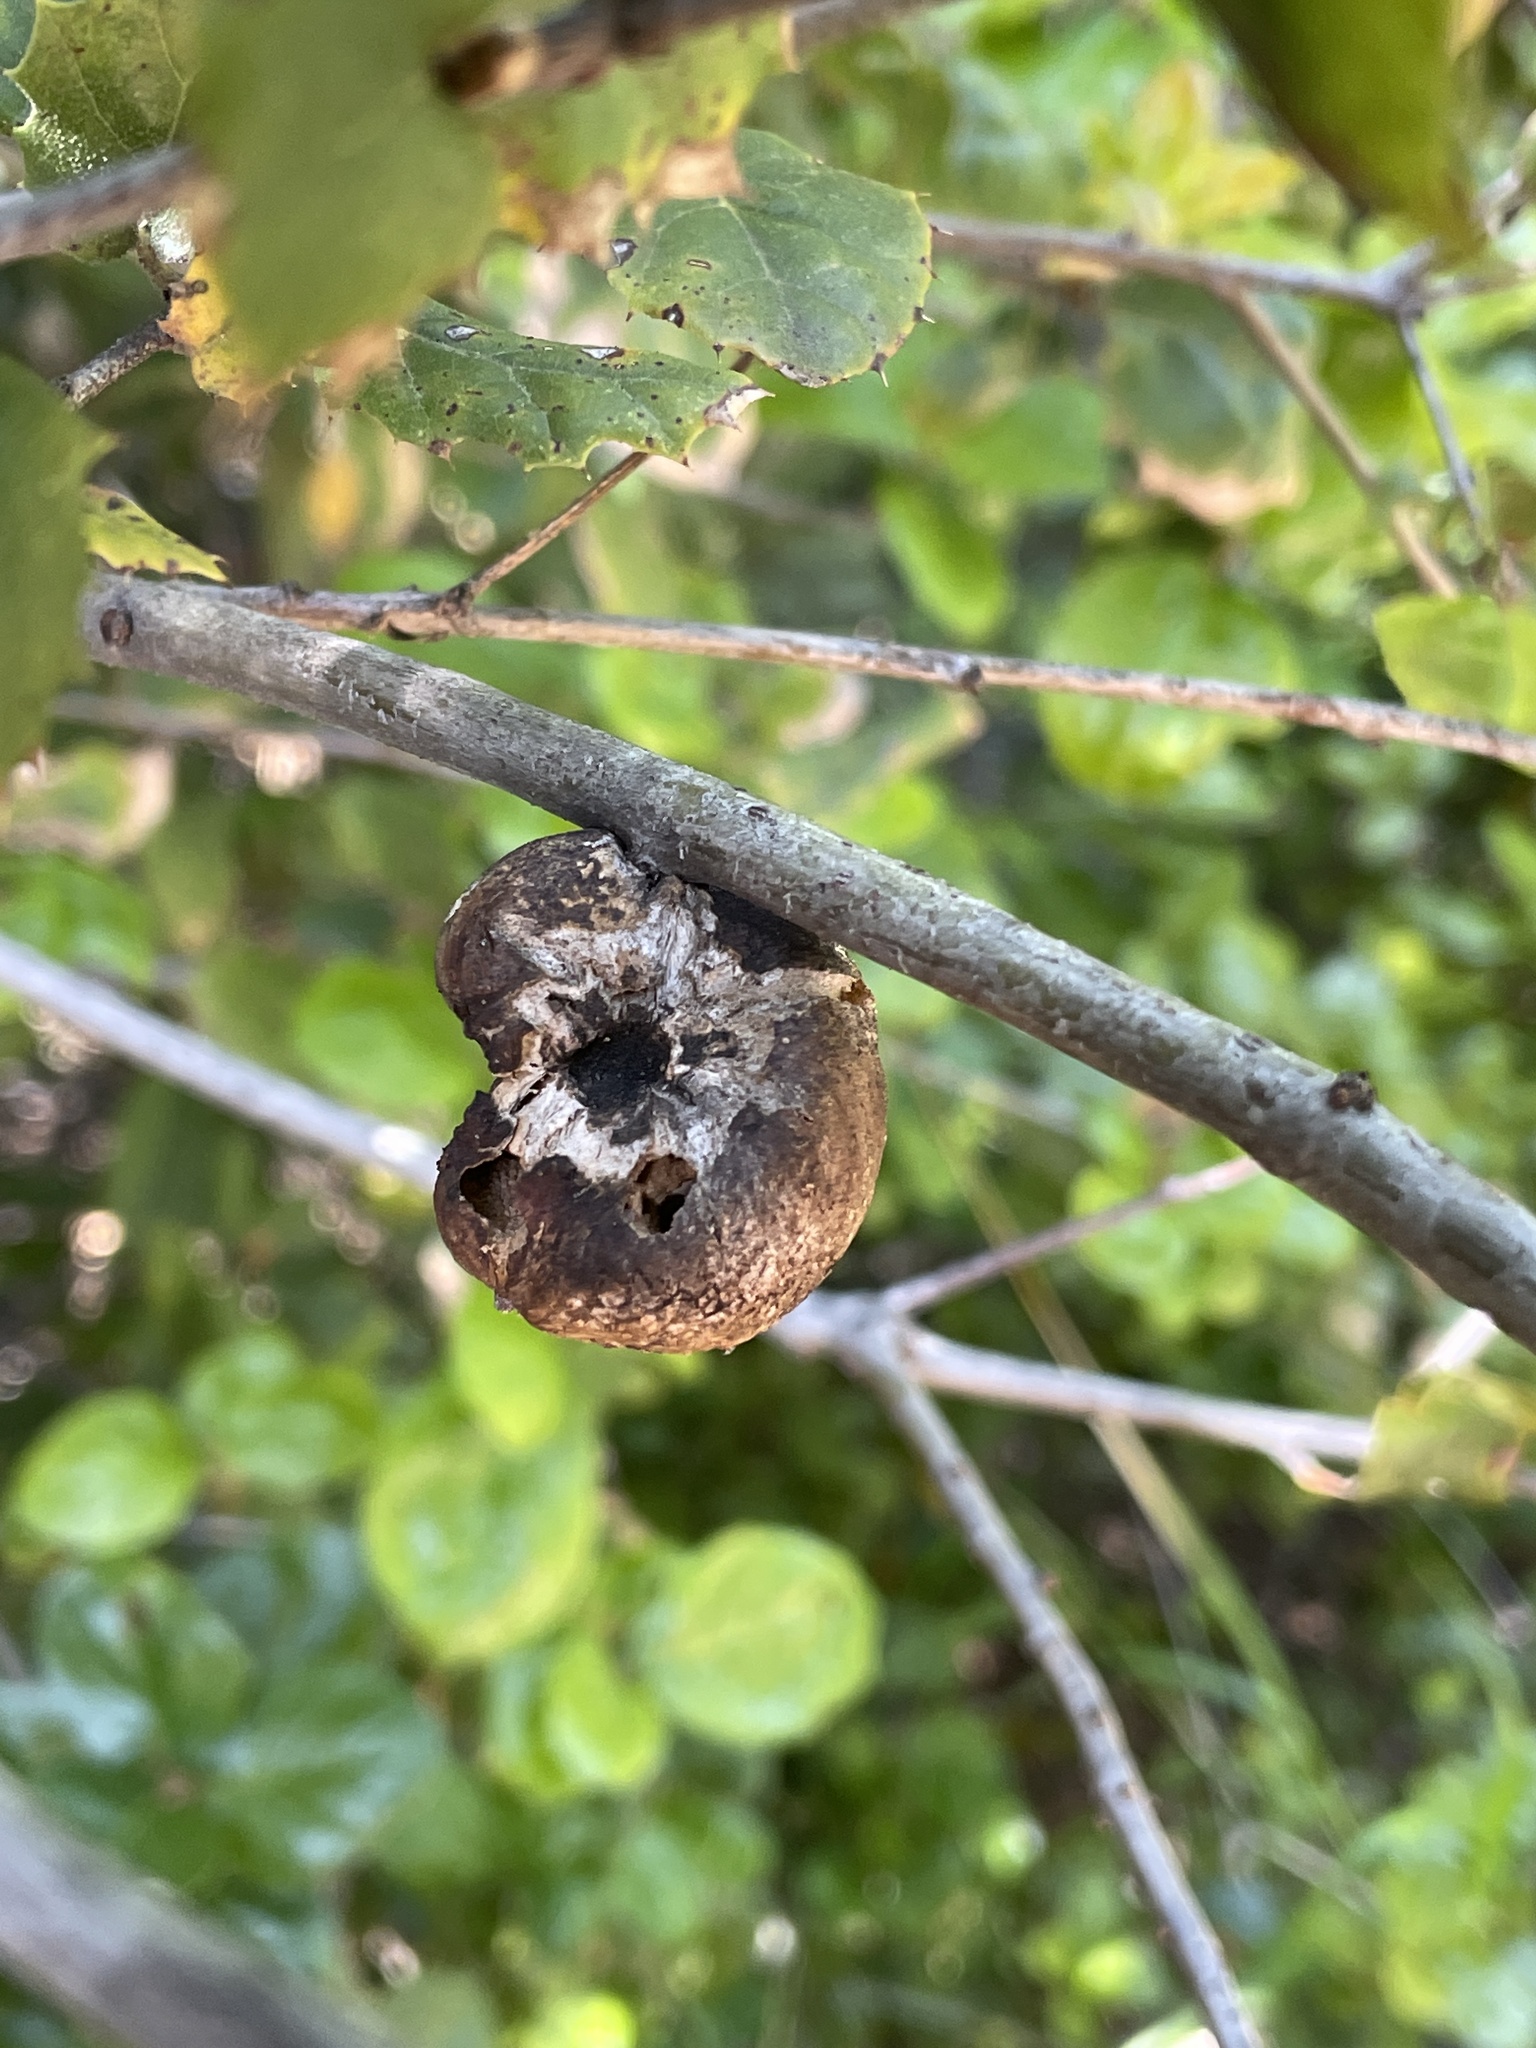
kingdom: Animalia
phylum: Arthropoda
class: Insecta
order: Hymenoptera
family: Cynipidae
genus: Amphibolips
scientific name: Amphibolips quercuspomiformis
